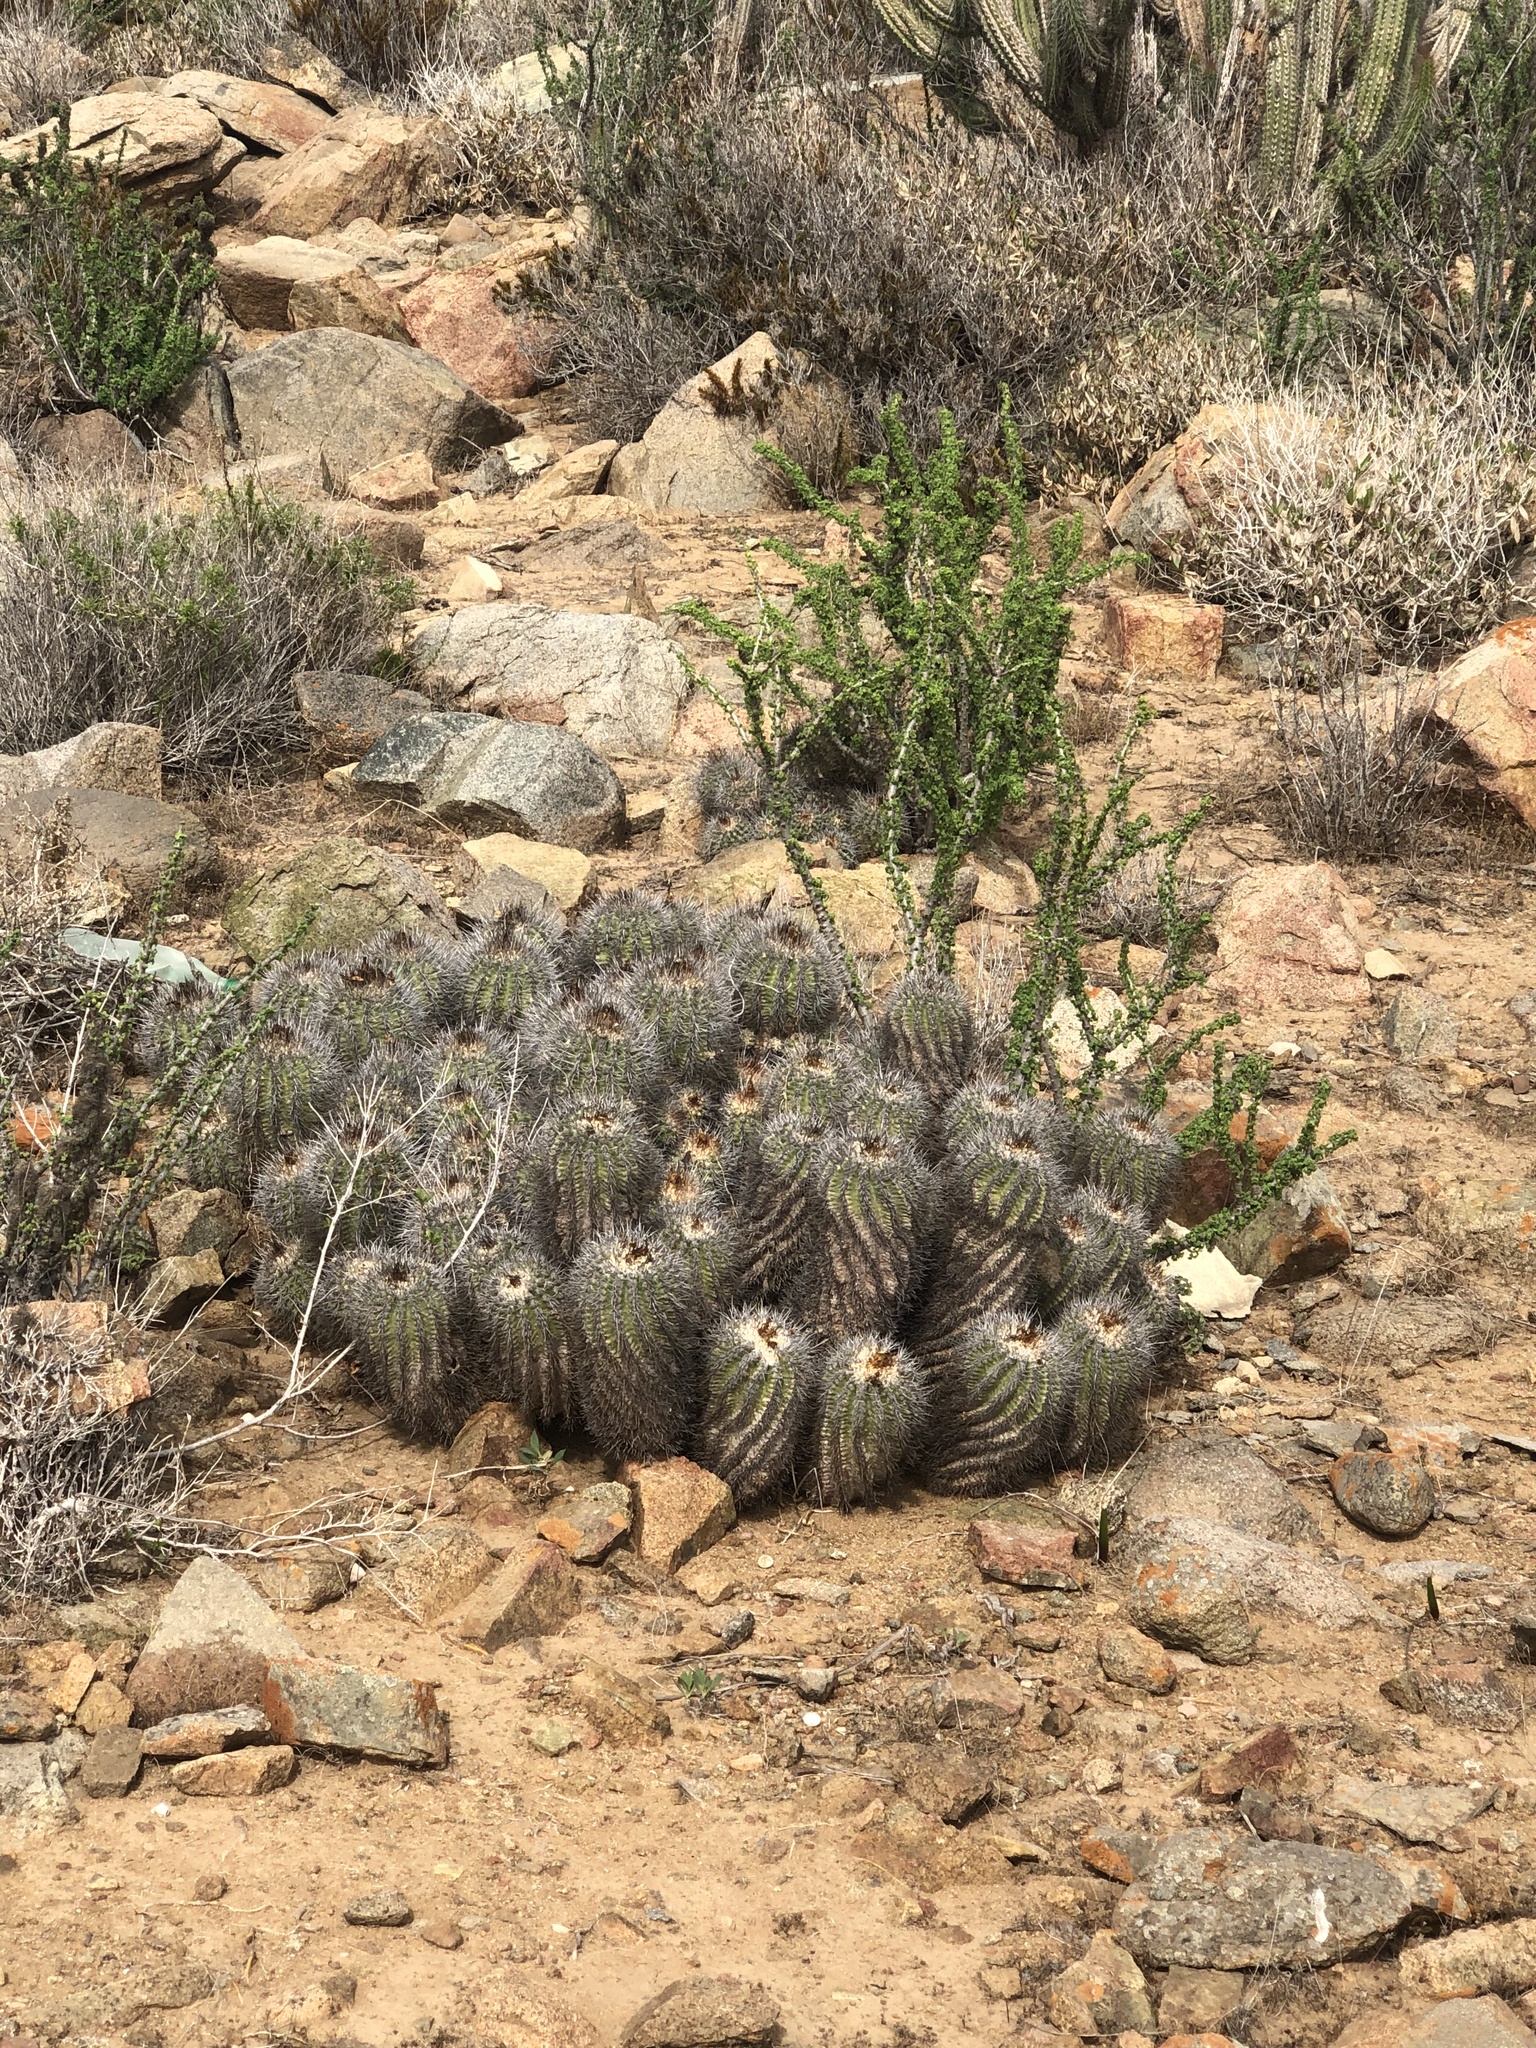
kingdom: Plantae
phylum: Tracheophyta
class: Magnoliopsida
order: Caryophyllales
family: Cactaceae
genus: Copiapoa
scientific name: Copiapoa coquimbana
